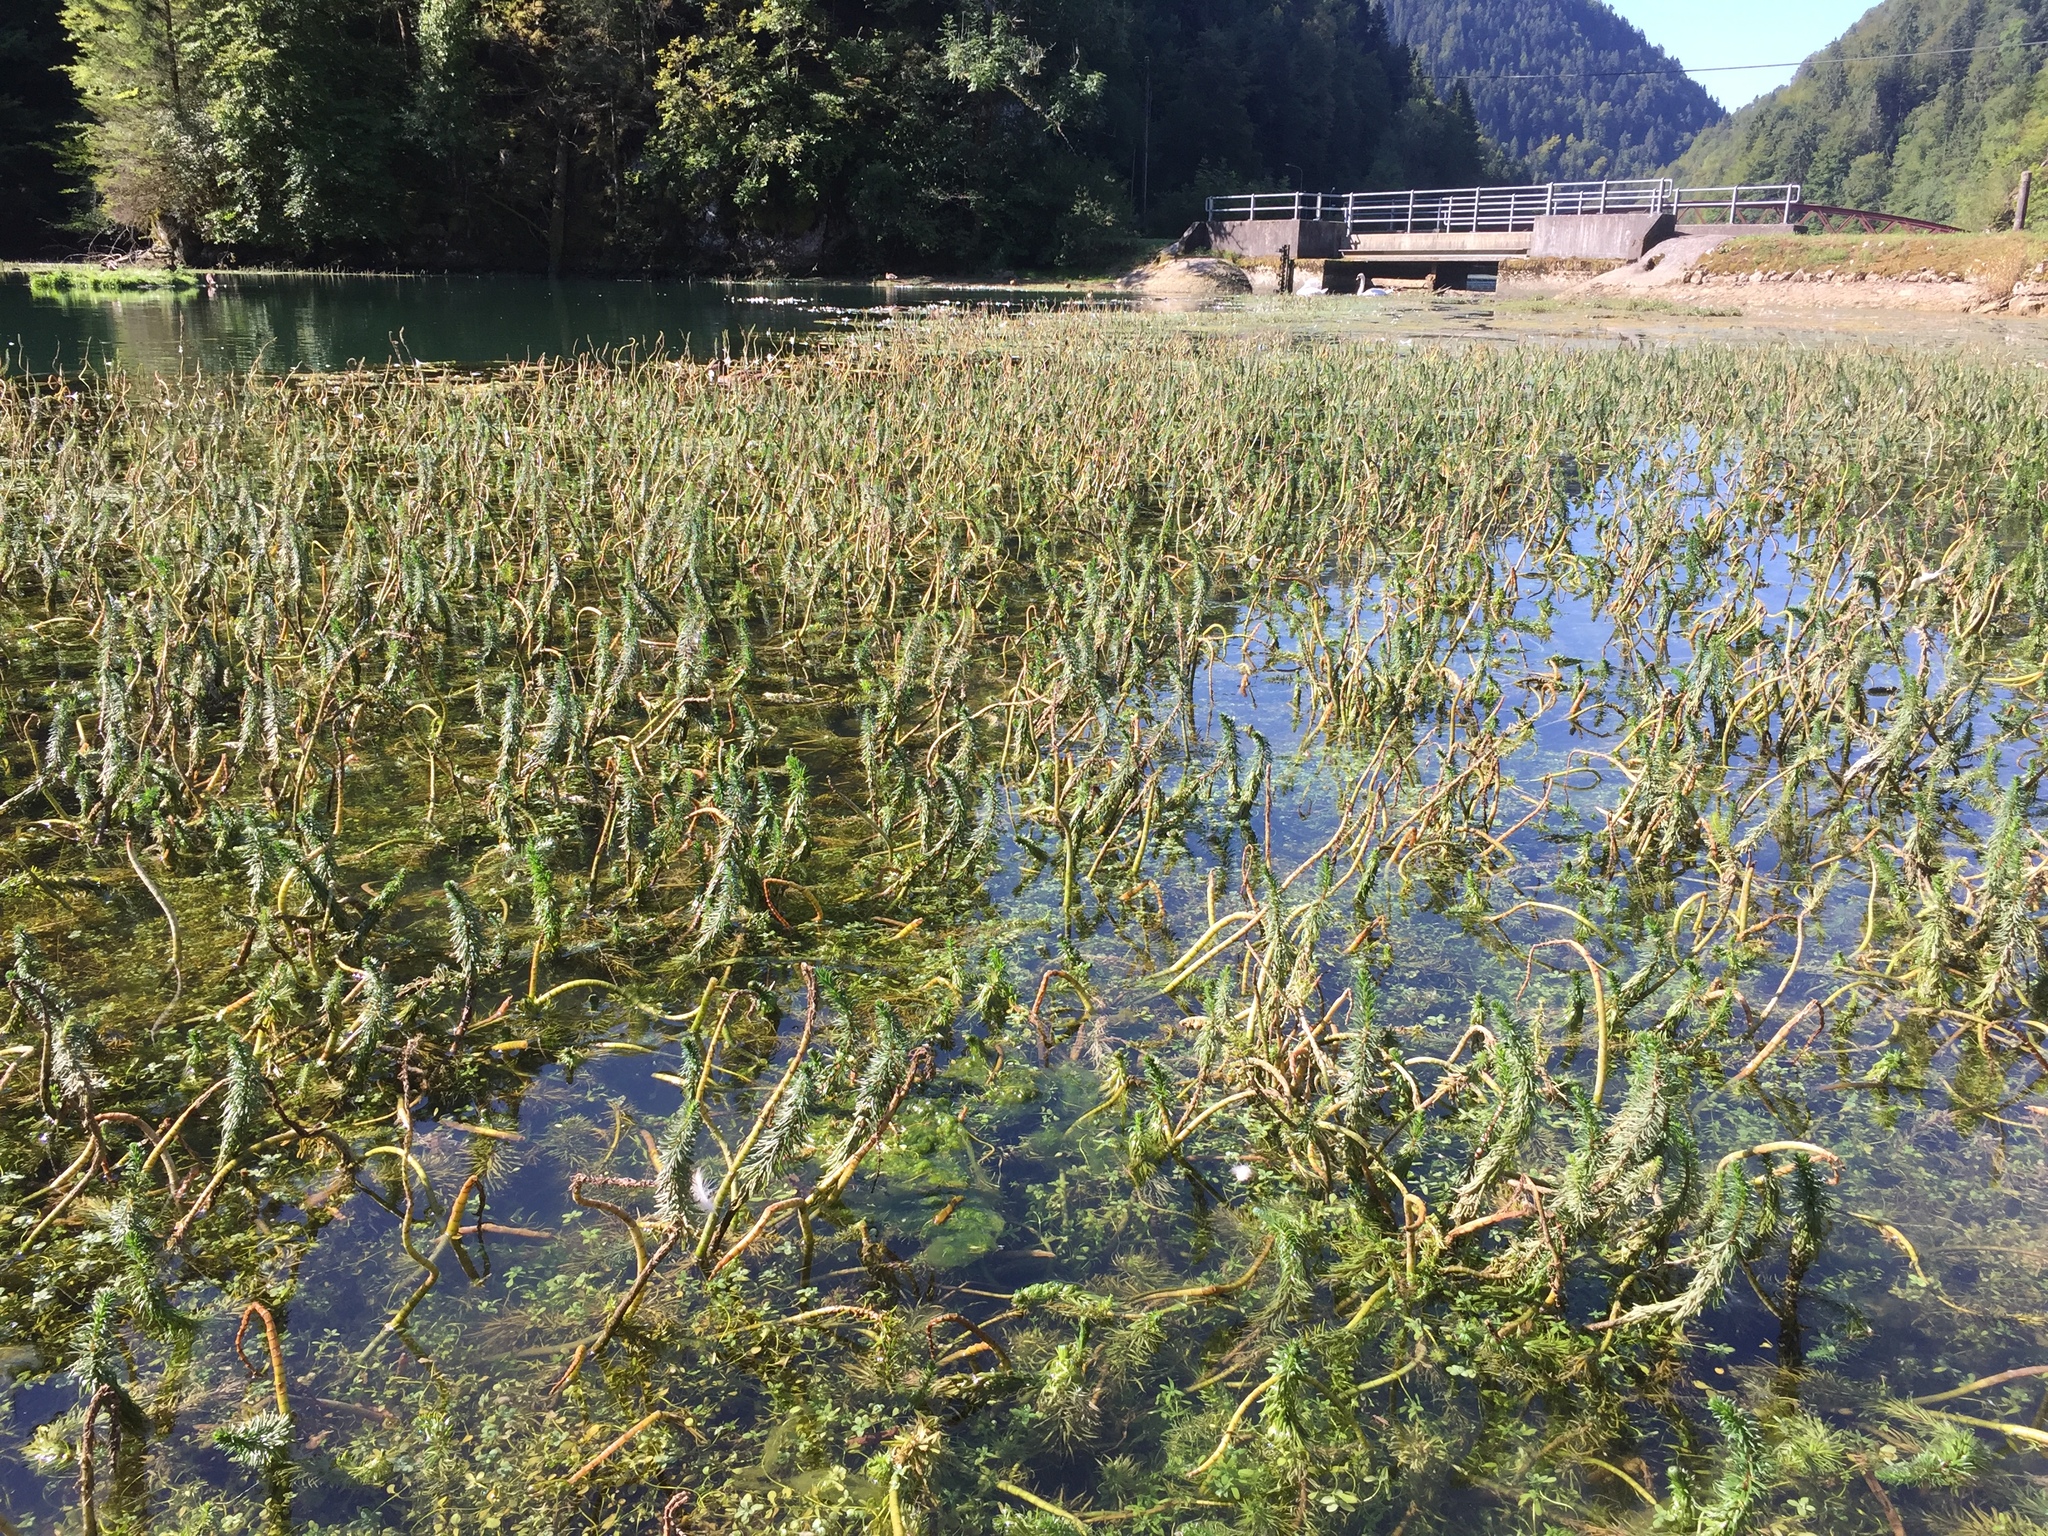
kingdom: Plantae
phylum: Tracheophyta
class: Magnoliopsida
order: Lamiales
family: Plantaginaceae
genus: Hippuris
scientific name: Hippuris vulgaris
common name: Mare's-tail
